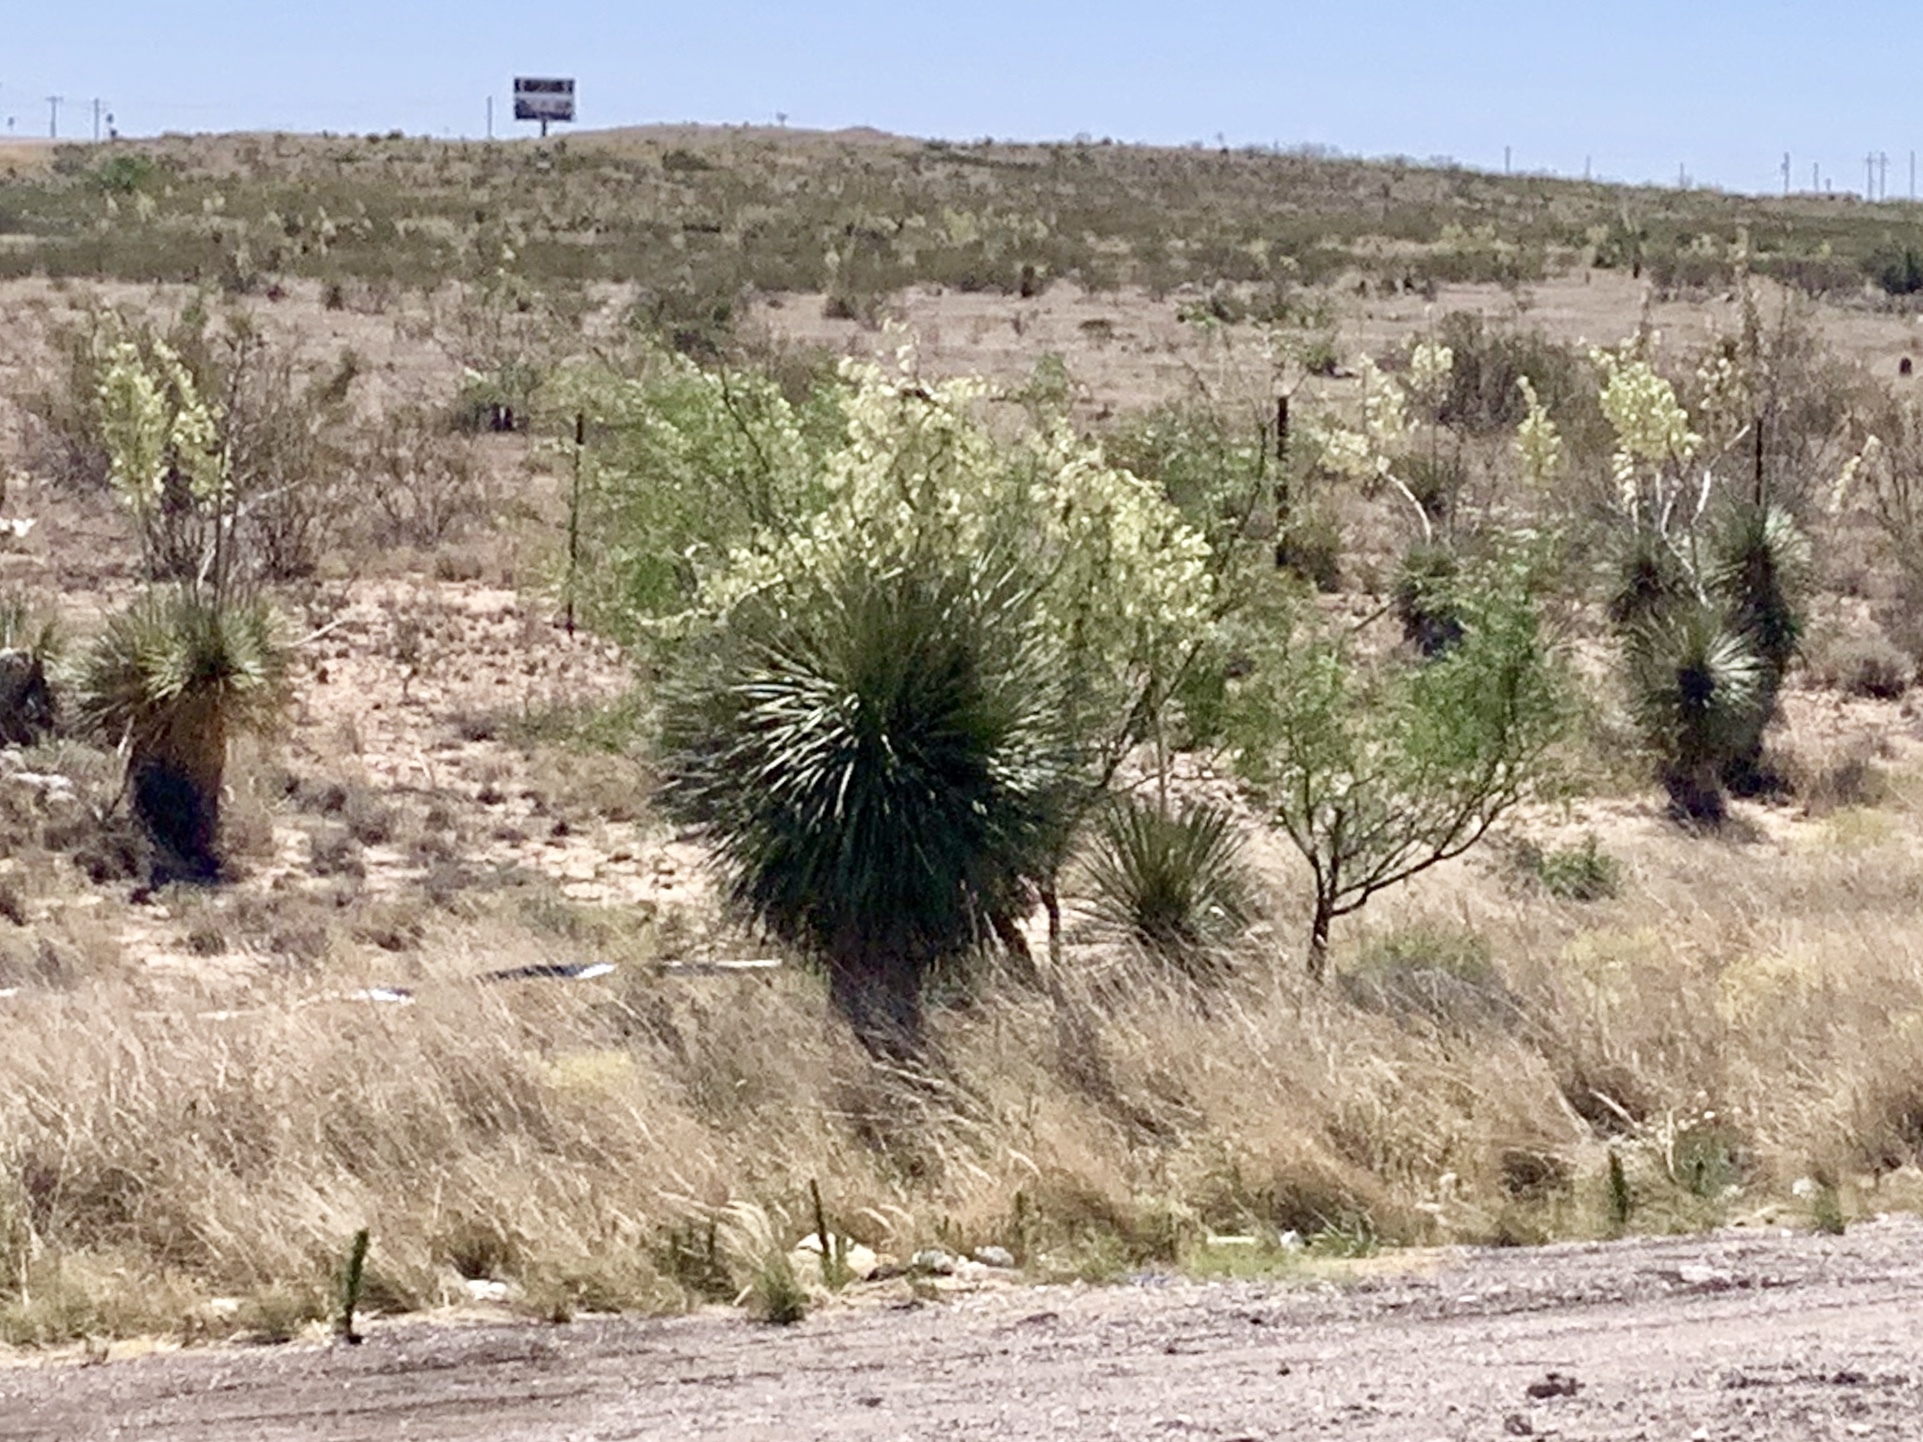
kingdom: Plantae
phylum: Tracheophyta
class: Liliopsida
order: Asparagales
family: Asparagaceae
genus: Yucca
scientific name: Yucca elata
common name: Palmella
